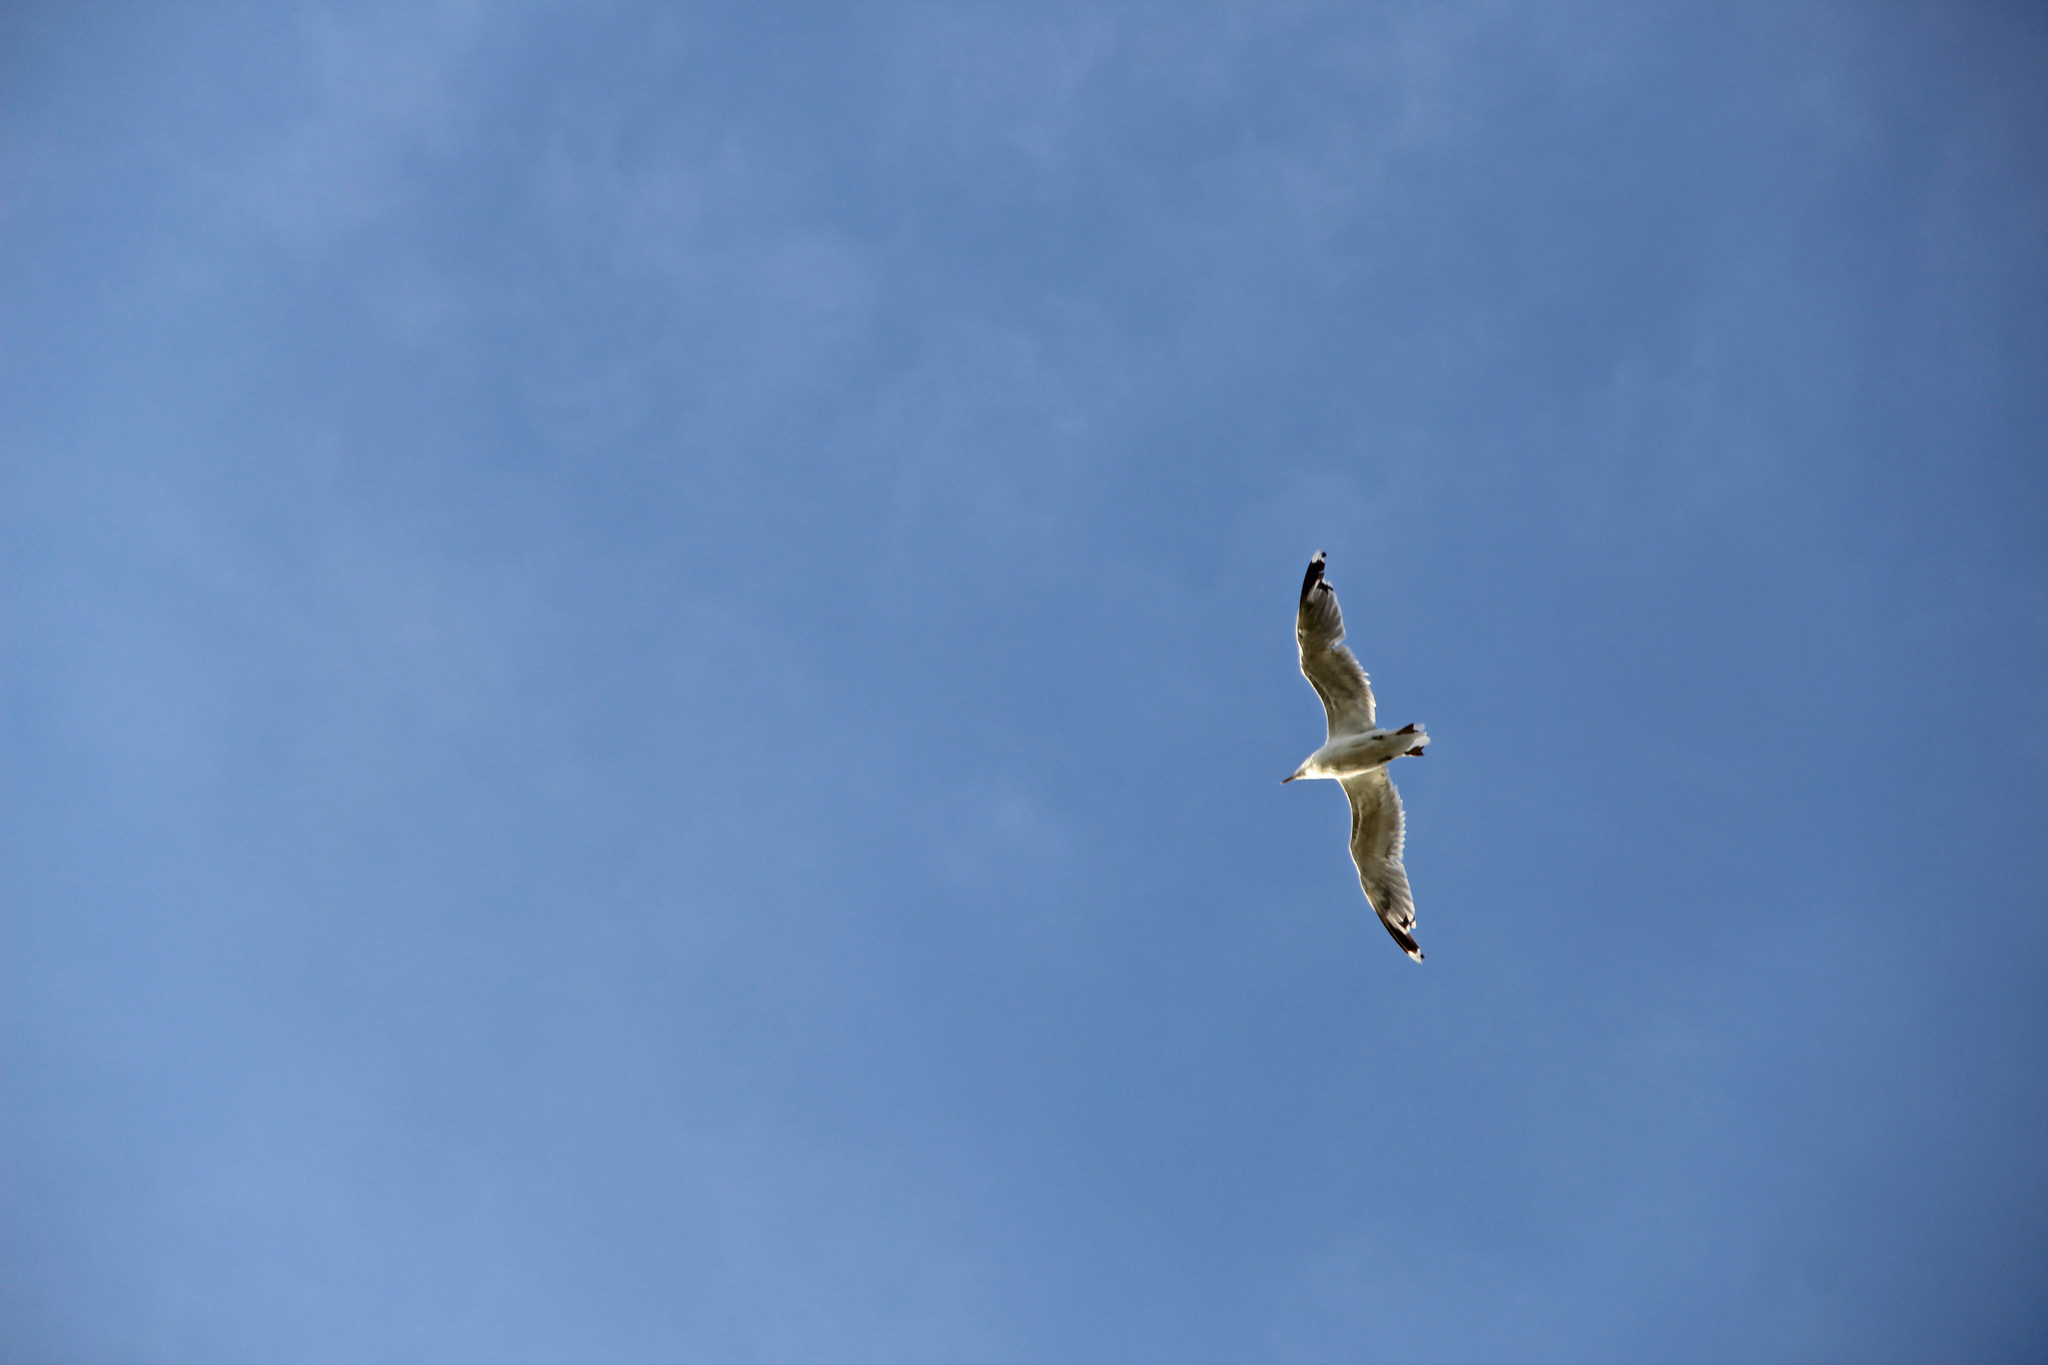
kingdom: Animalia
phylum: Chordata
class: Aves
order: Charadriiformes
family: Laridae
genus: Larus
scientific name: Larus michahellis
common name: Yellow-legged gull
